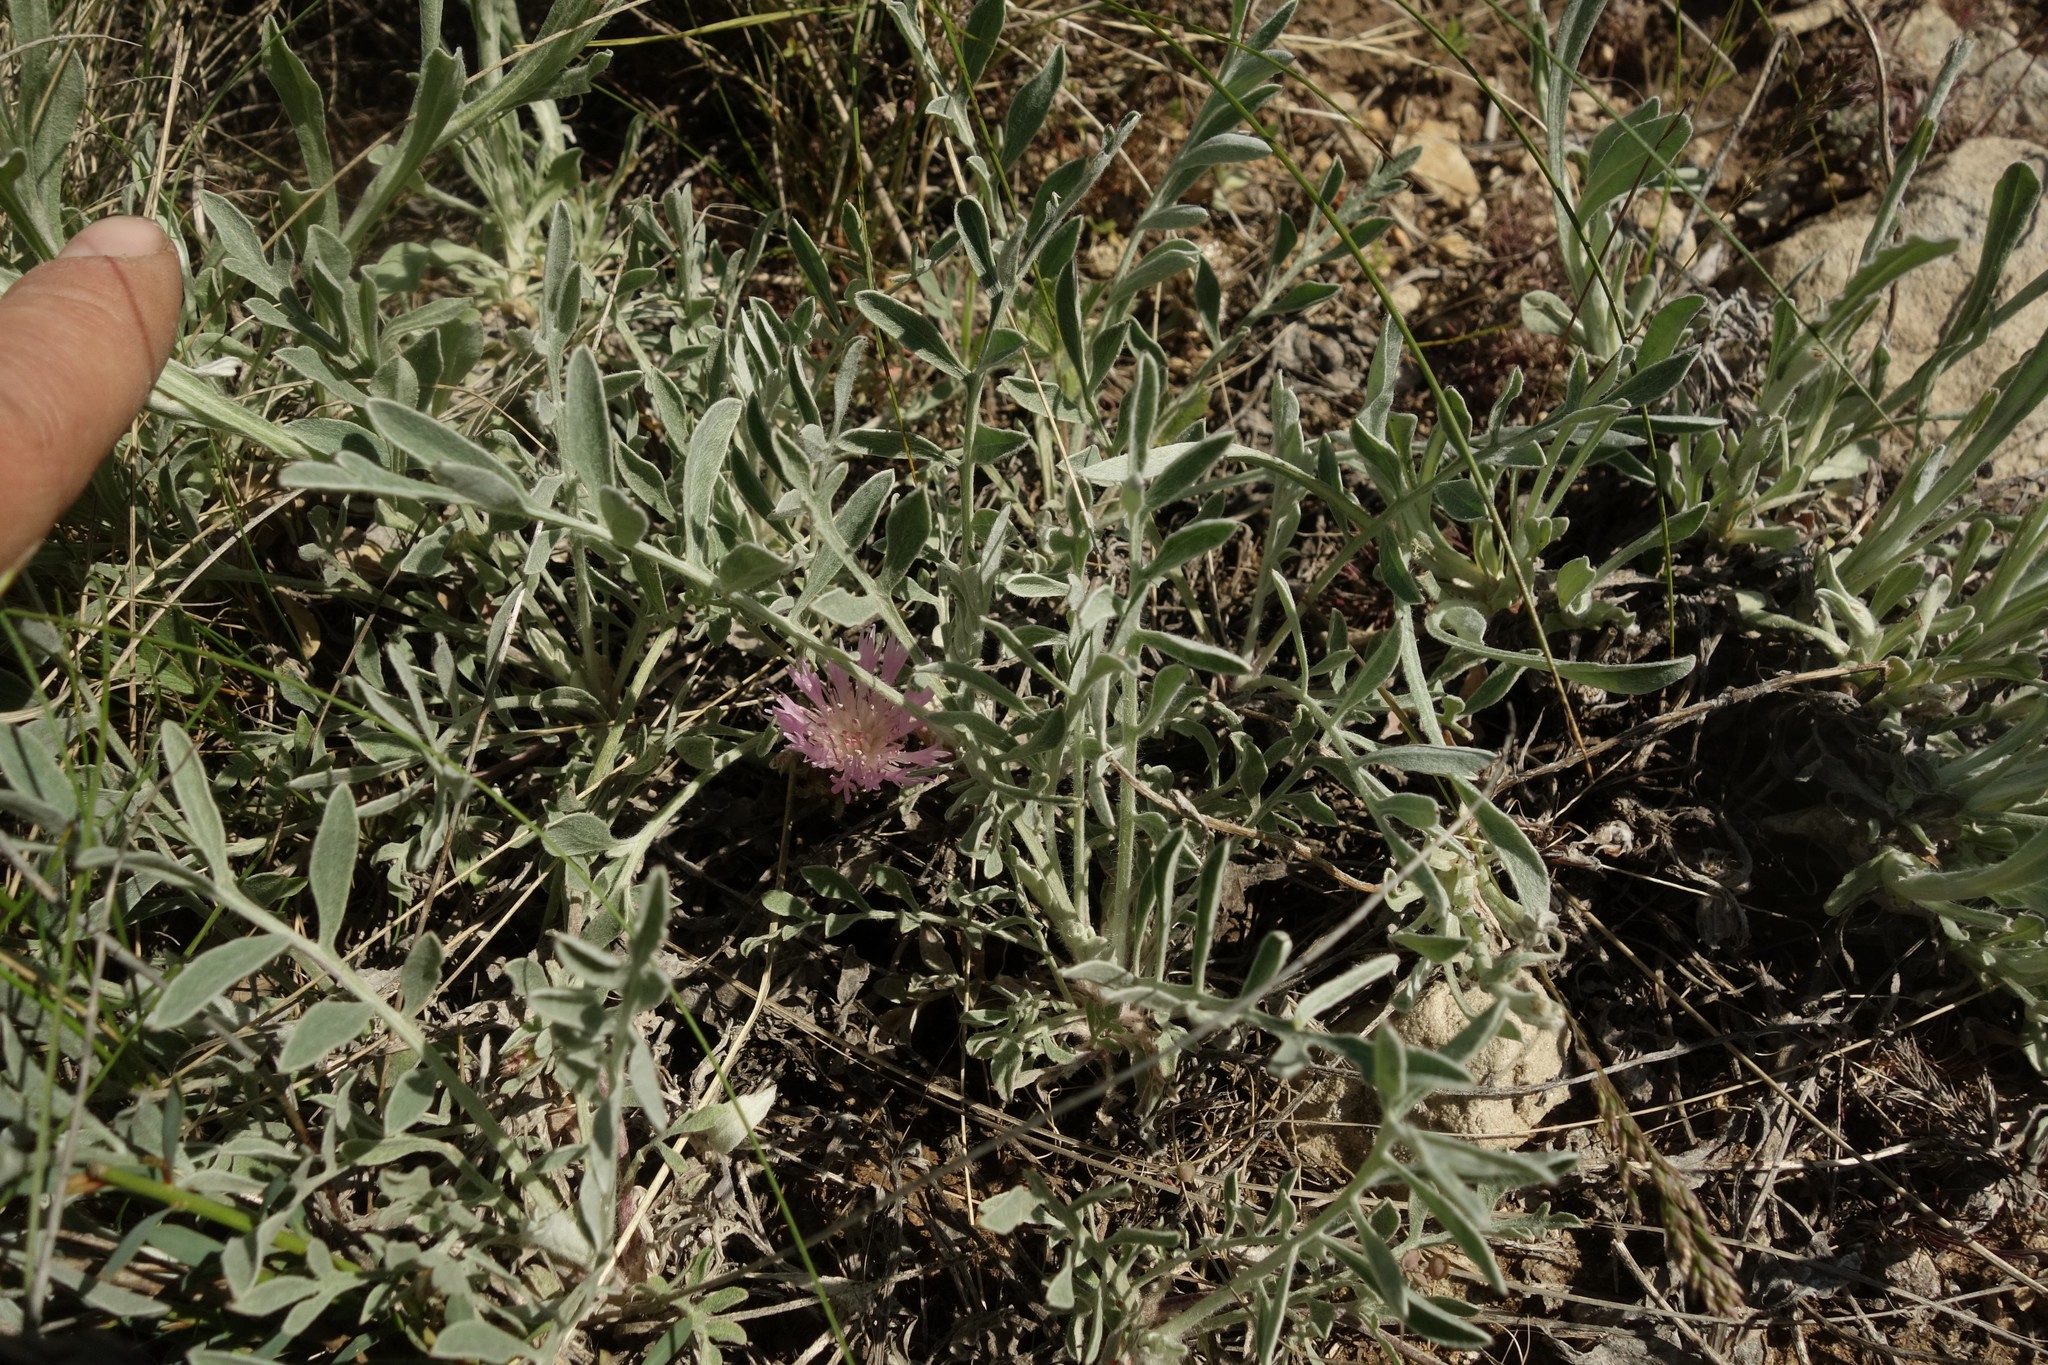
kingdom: Plantae
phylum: Tracheophyta
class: Magnoliopsida
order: Asterales
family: Asteraceae
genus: Psephellus
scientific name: Psephellus marschallianus
